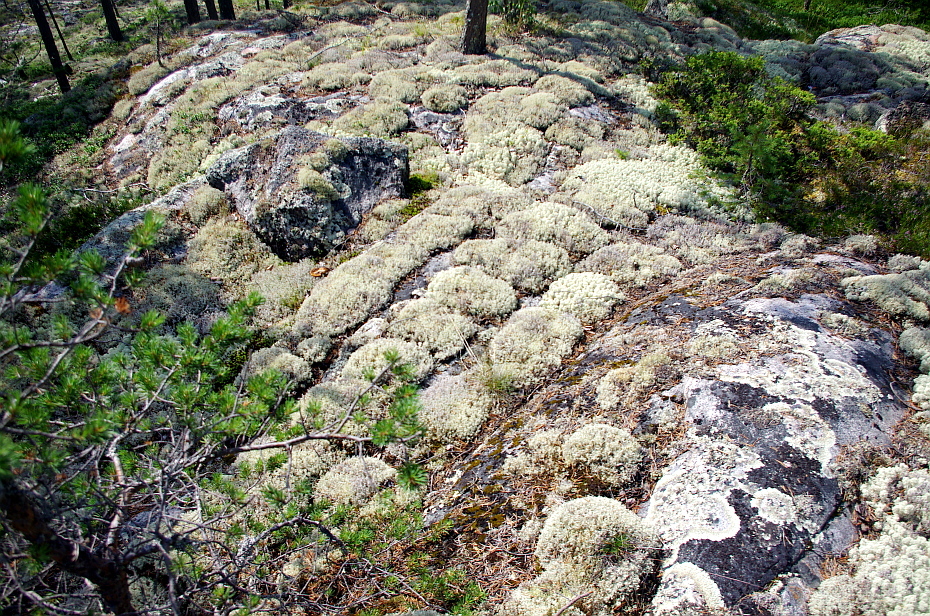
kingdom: Fungi
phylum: Ascomycota
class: Lecanoromycetes
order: Lecanorales
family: Cladoniaceae
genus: Cladonia
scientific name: Cladonia stellaris
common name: Star-tipped reindeer lichen
